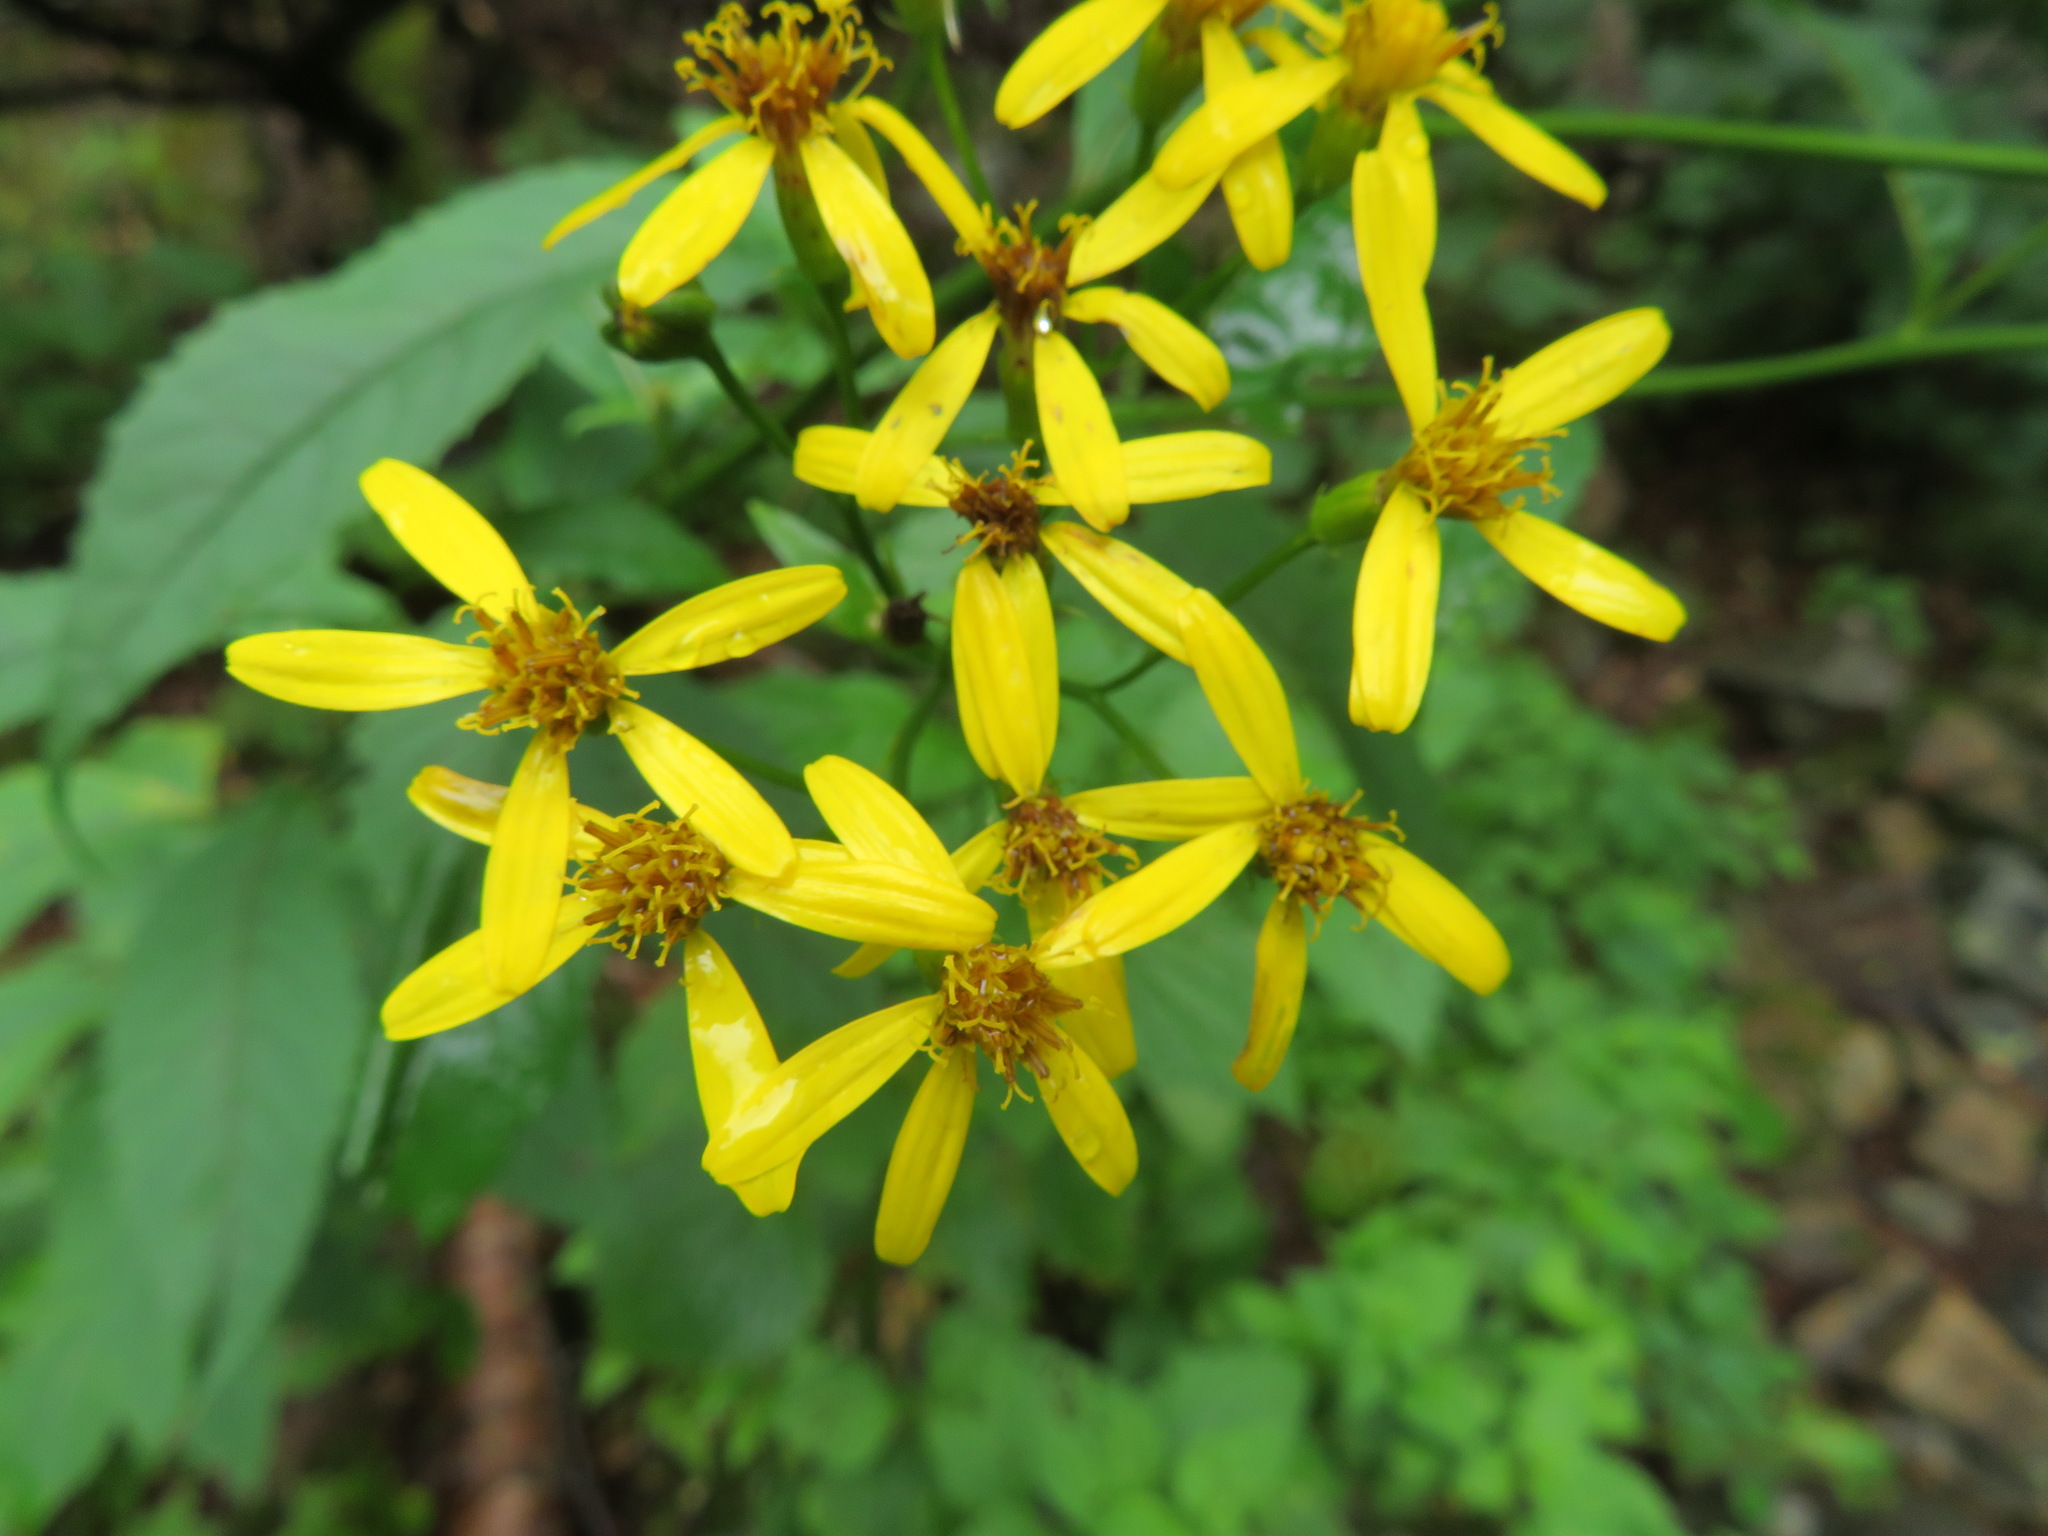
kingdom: Plantae
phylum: Tracheophyta
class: Magnoliopsida
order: Asterales
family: Asteraceae
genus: Senecio
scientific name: Senecio nemorensis
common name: Alpine ragwort
